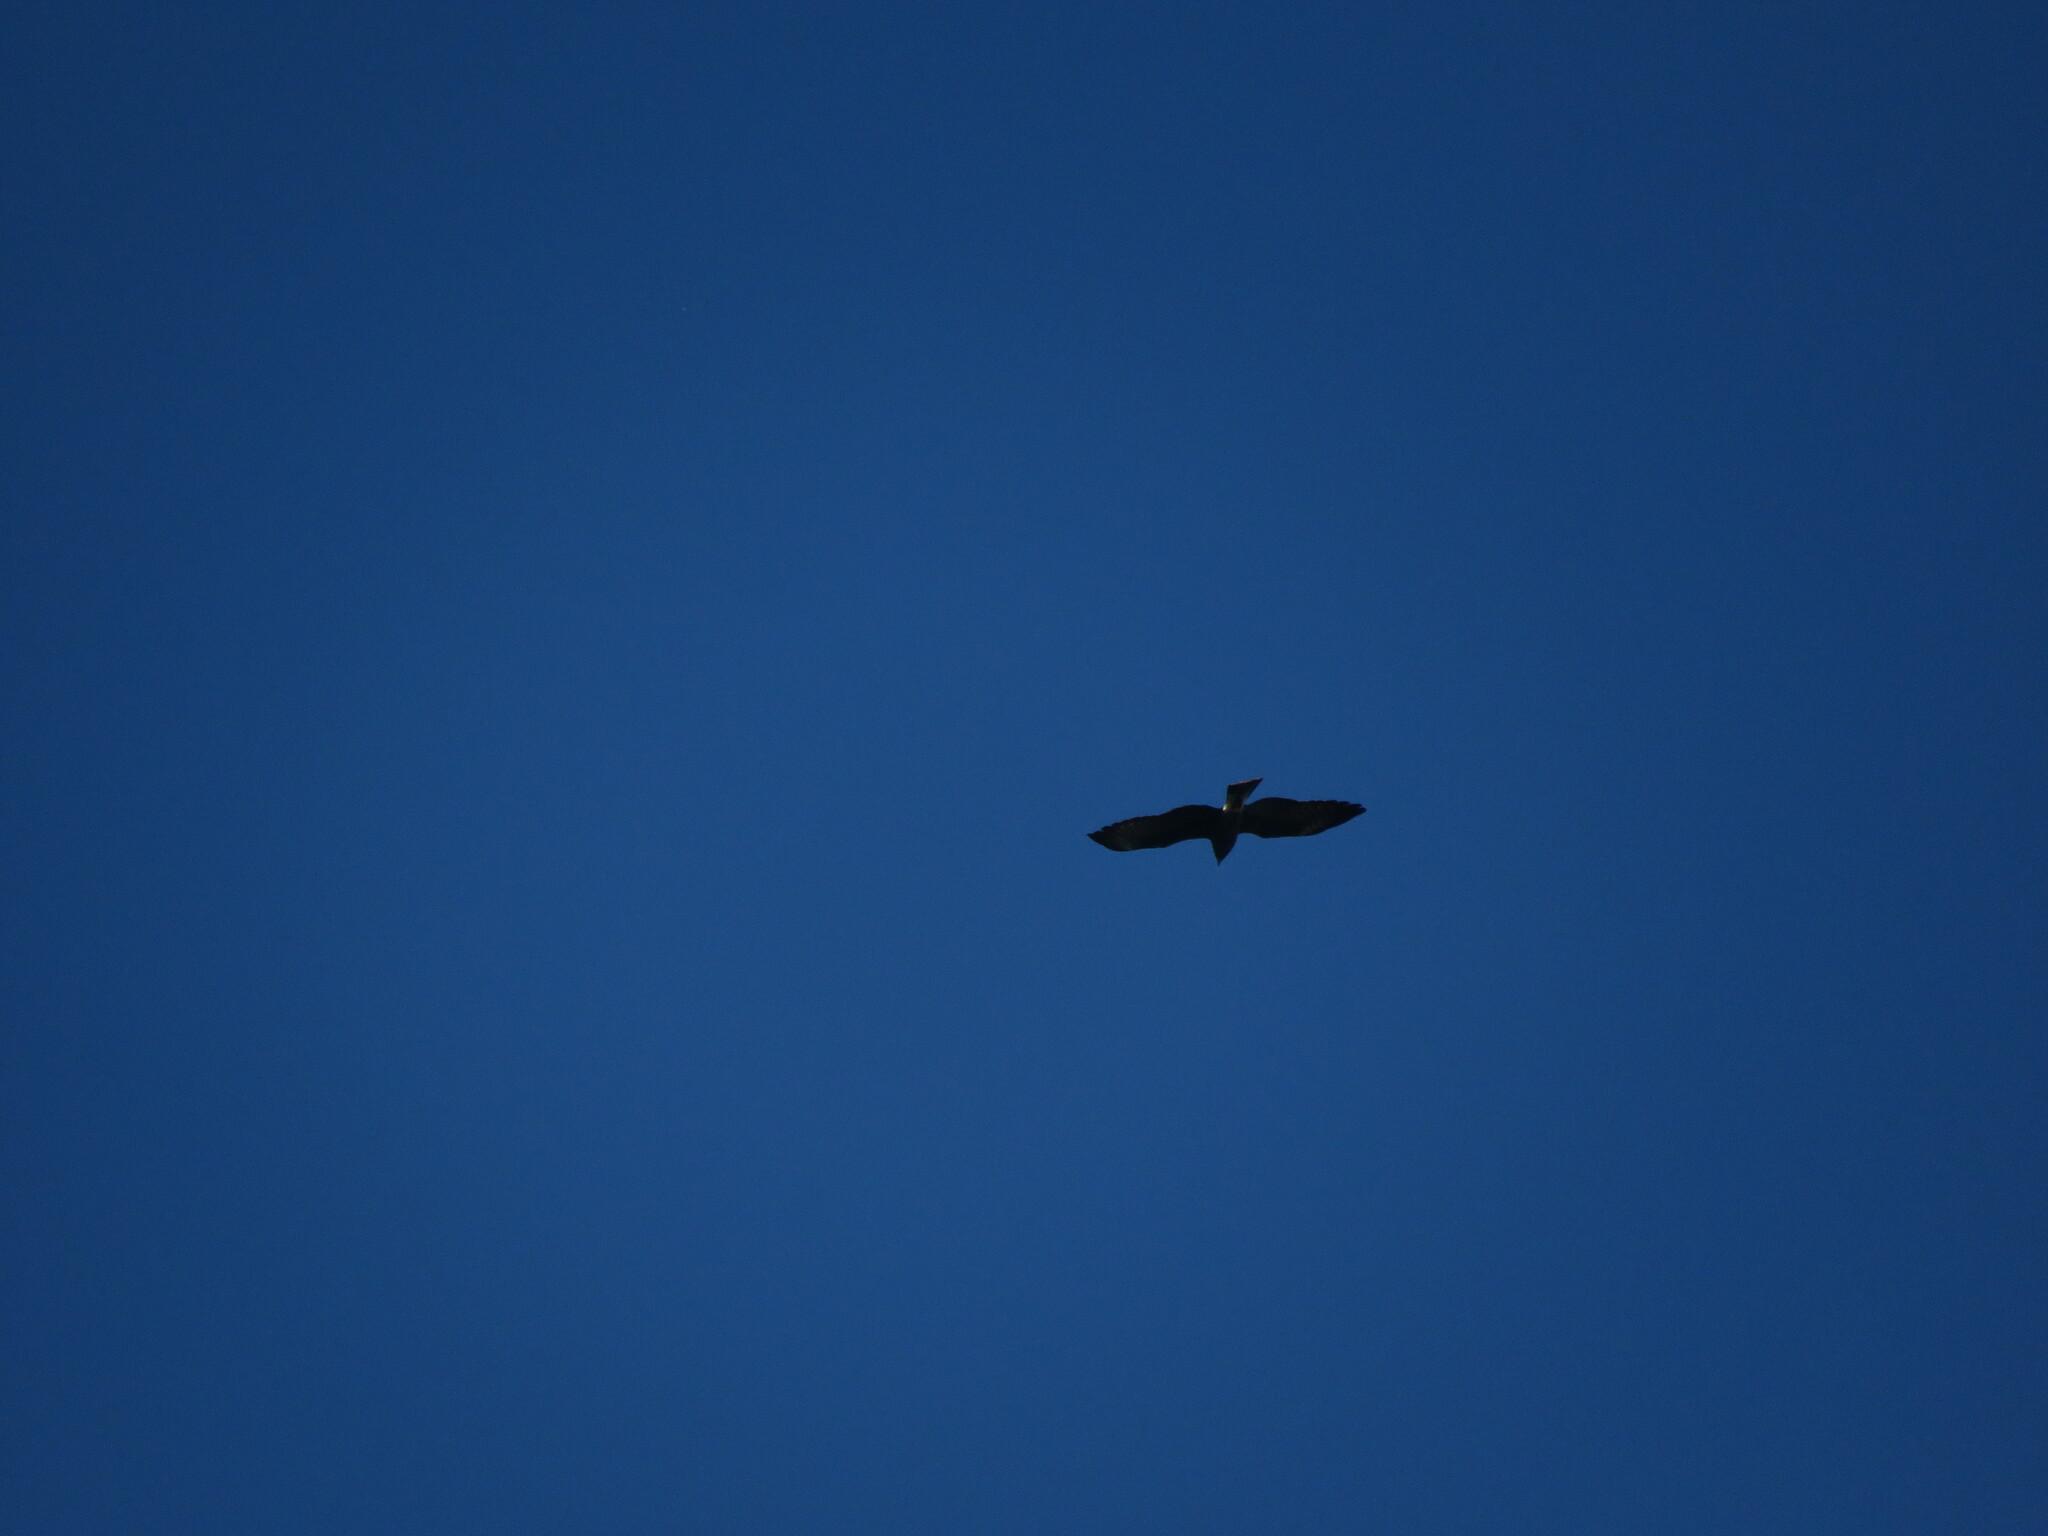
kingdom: Animalia
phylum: Chordata
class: Aves
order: Accipitriformes
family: Accipitridae
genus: Rostrhamus
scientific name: Rostrhamus sociabilis
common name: Snail kite
